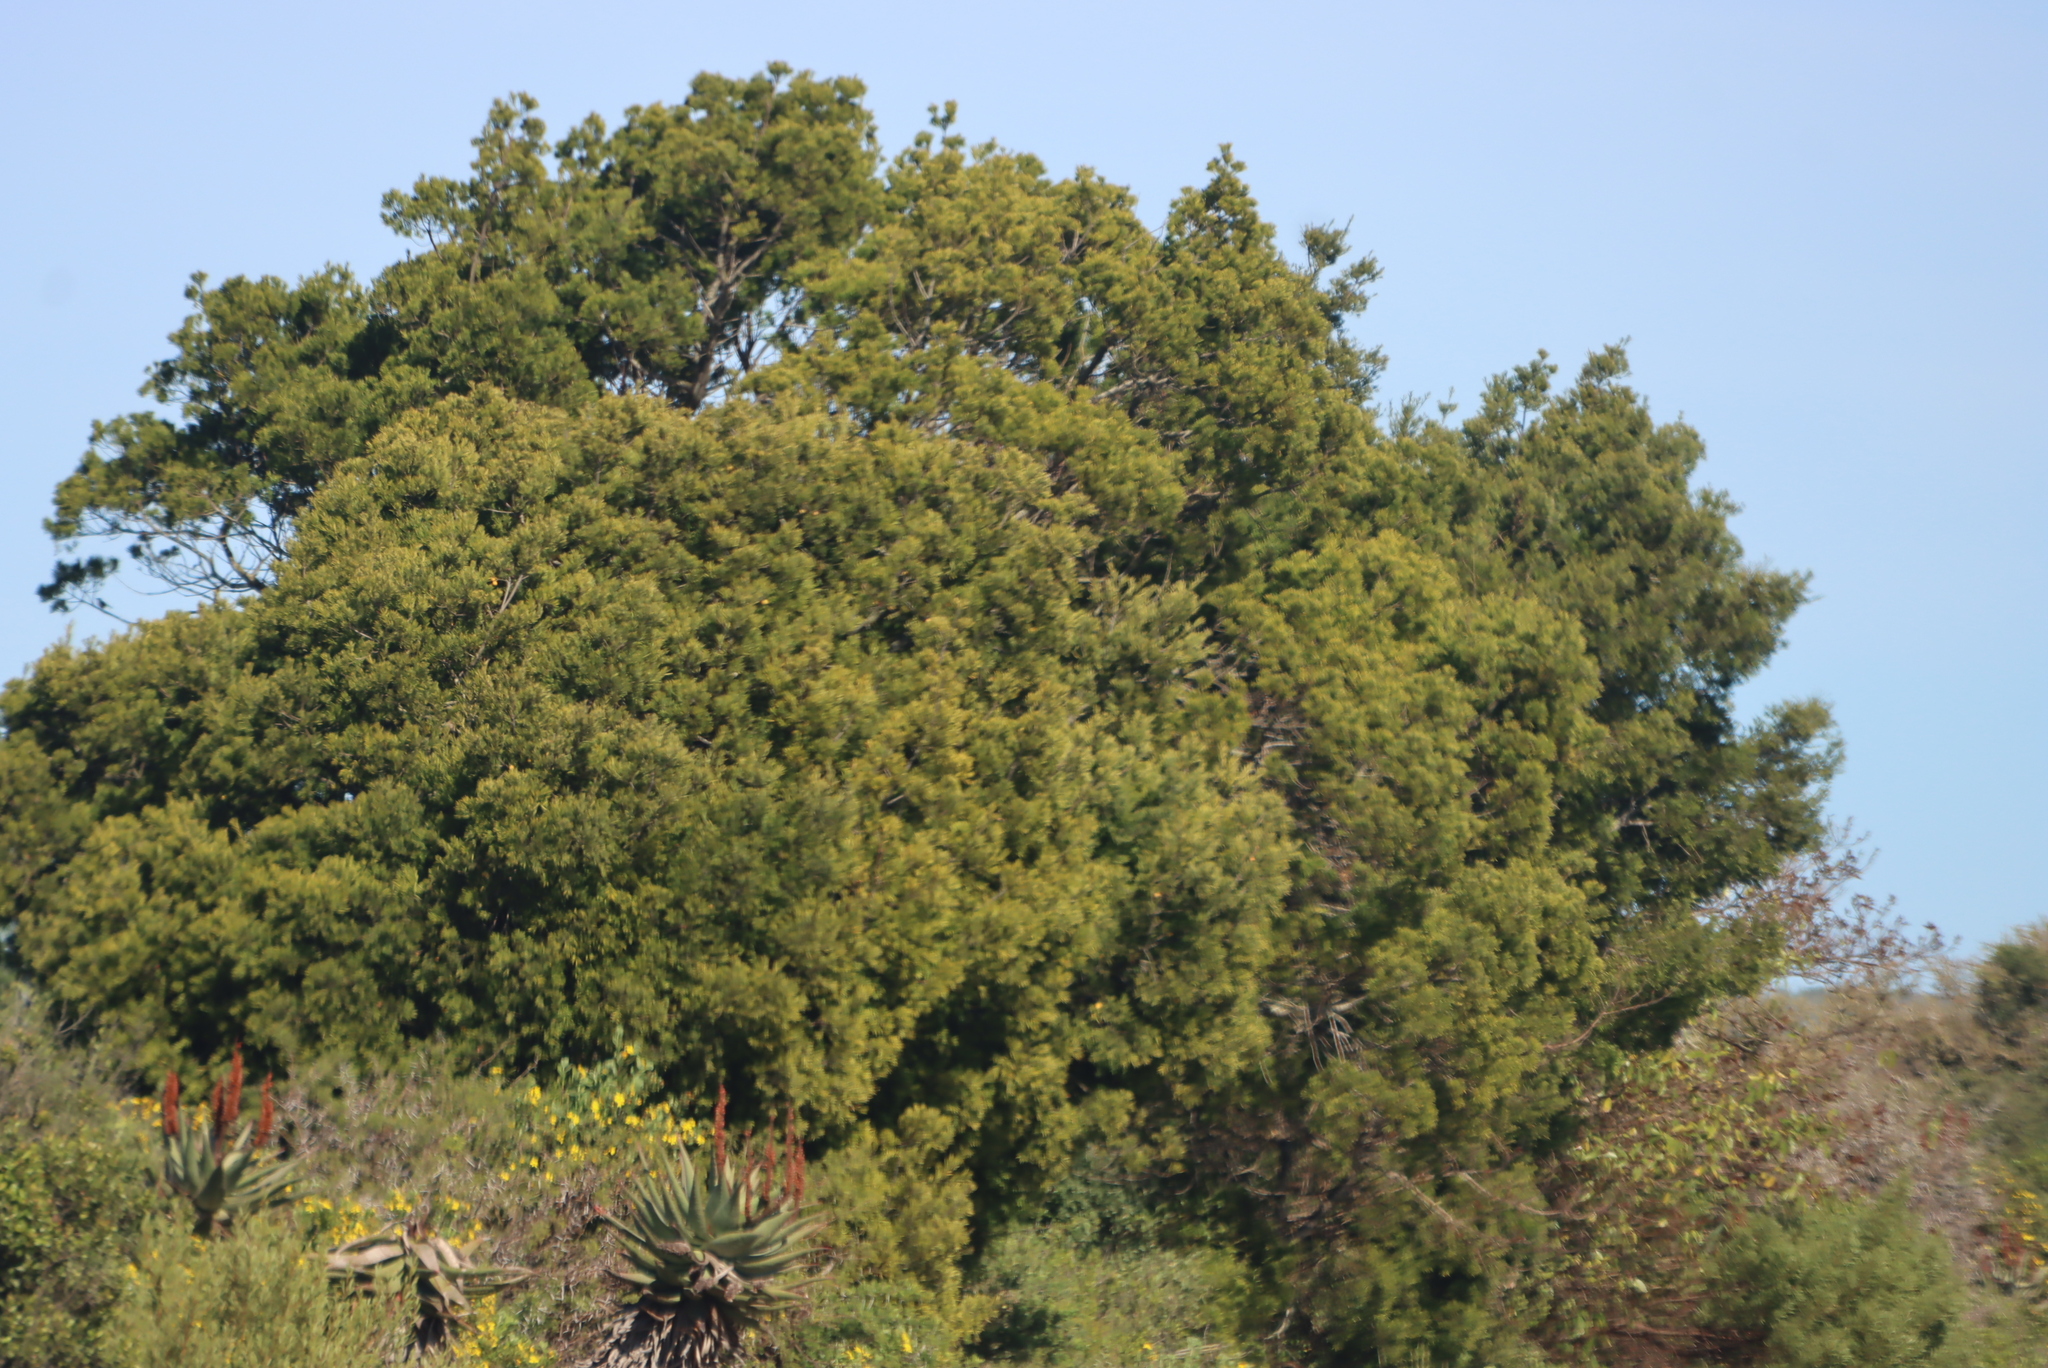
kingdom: Plantae
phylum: Tracheophyta
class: Pinopsida
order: Pinales
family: Podocarpaceae
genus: Afrocarpus
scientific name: Afrocarpus falcatus
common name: Bastard yellowwood
